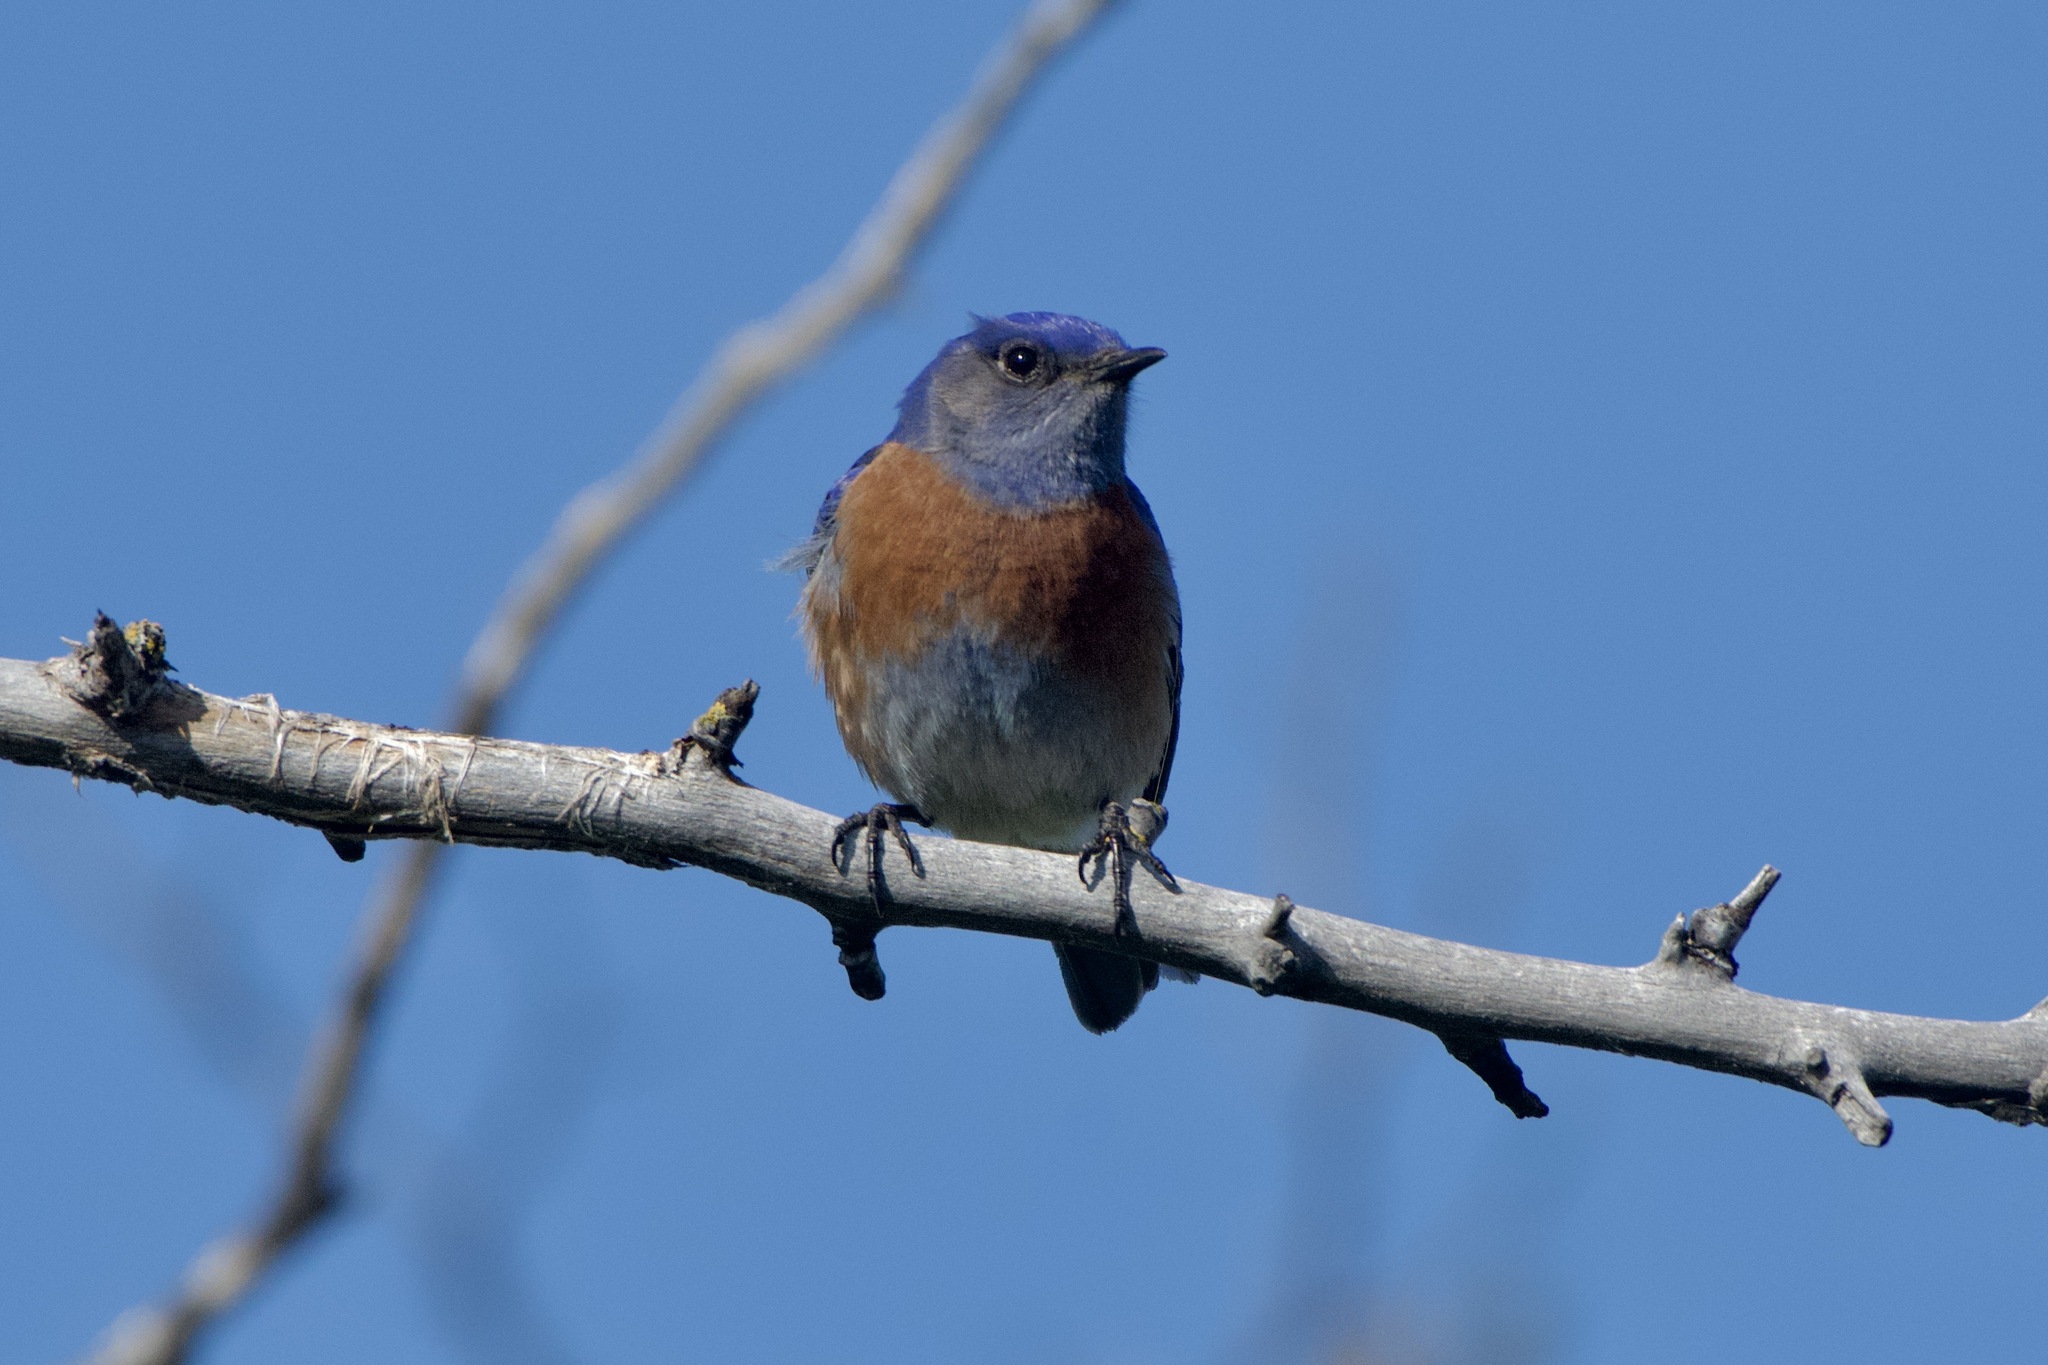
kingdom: Animalia
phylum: Chordata
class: Aves
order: Passeriformes
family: Turdidae
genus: Sialia
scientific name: Sialia mexicana
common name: Western bluebird
